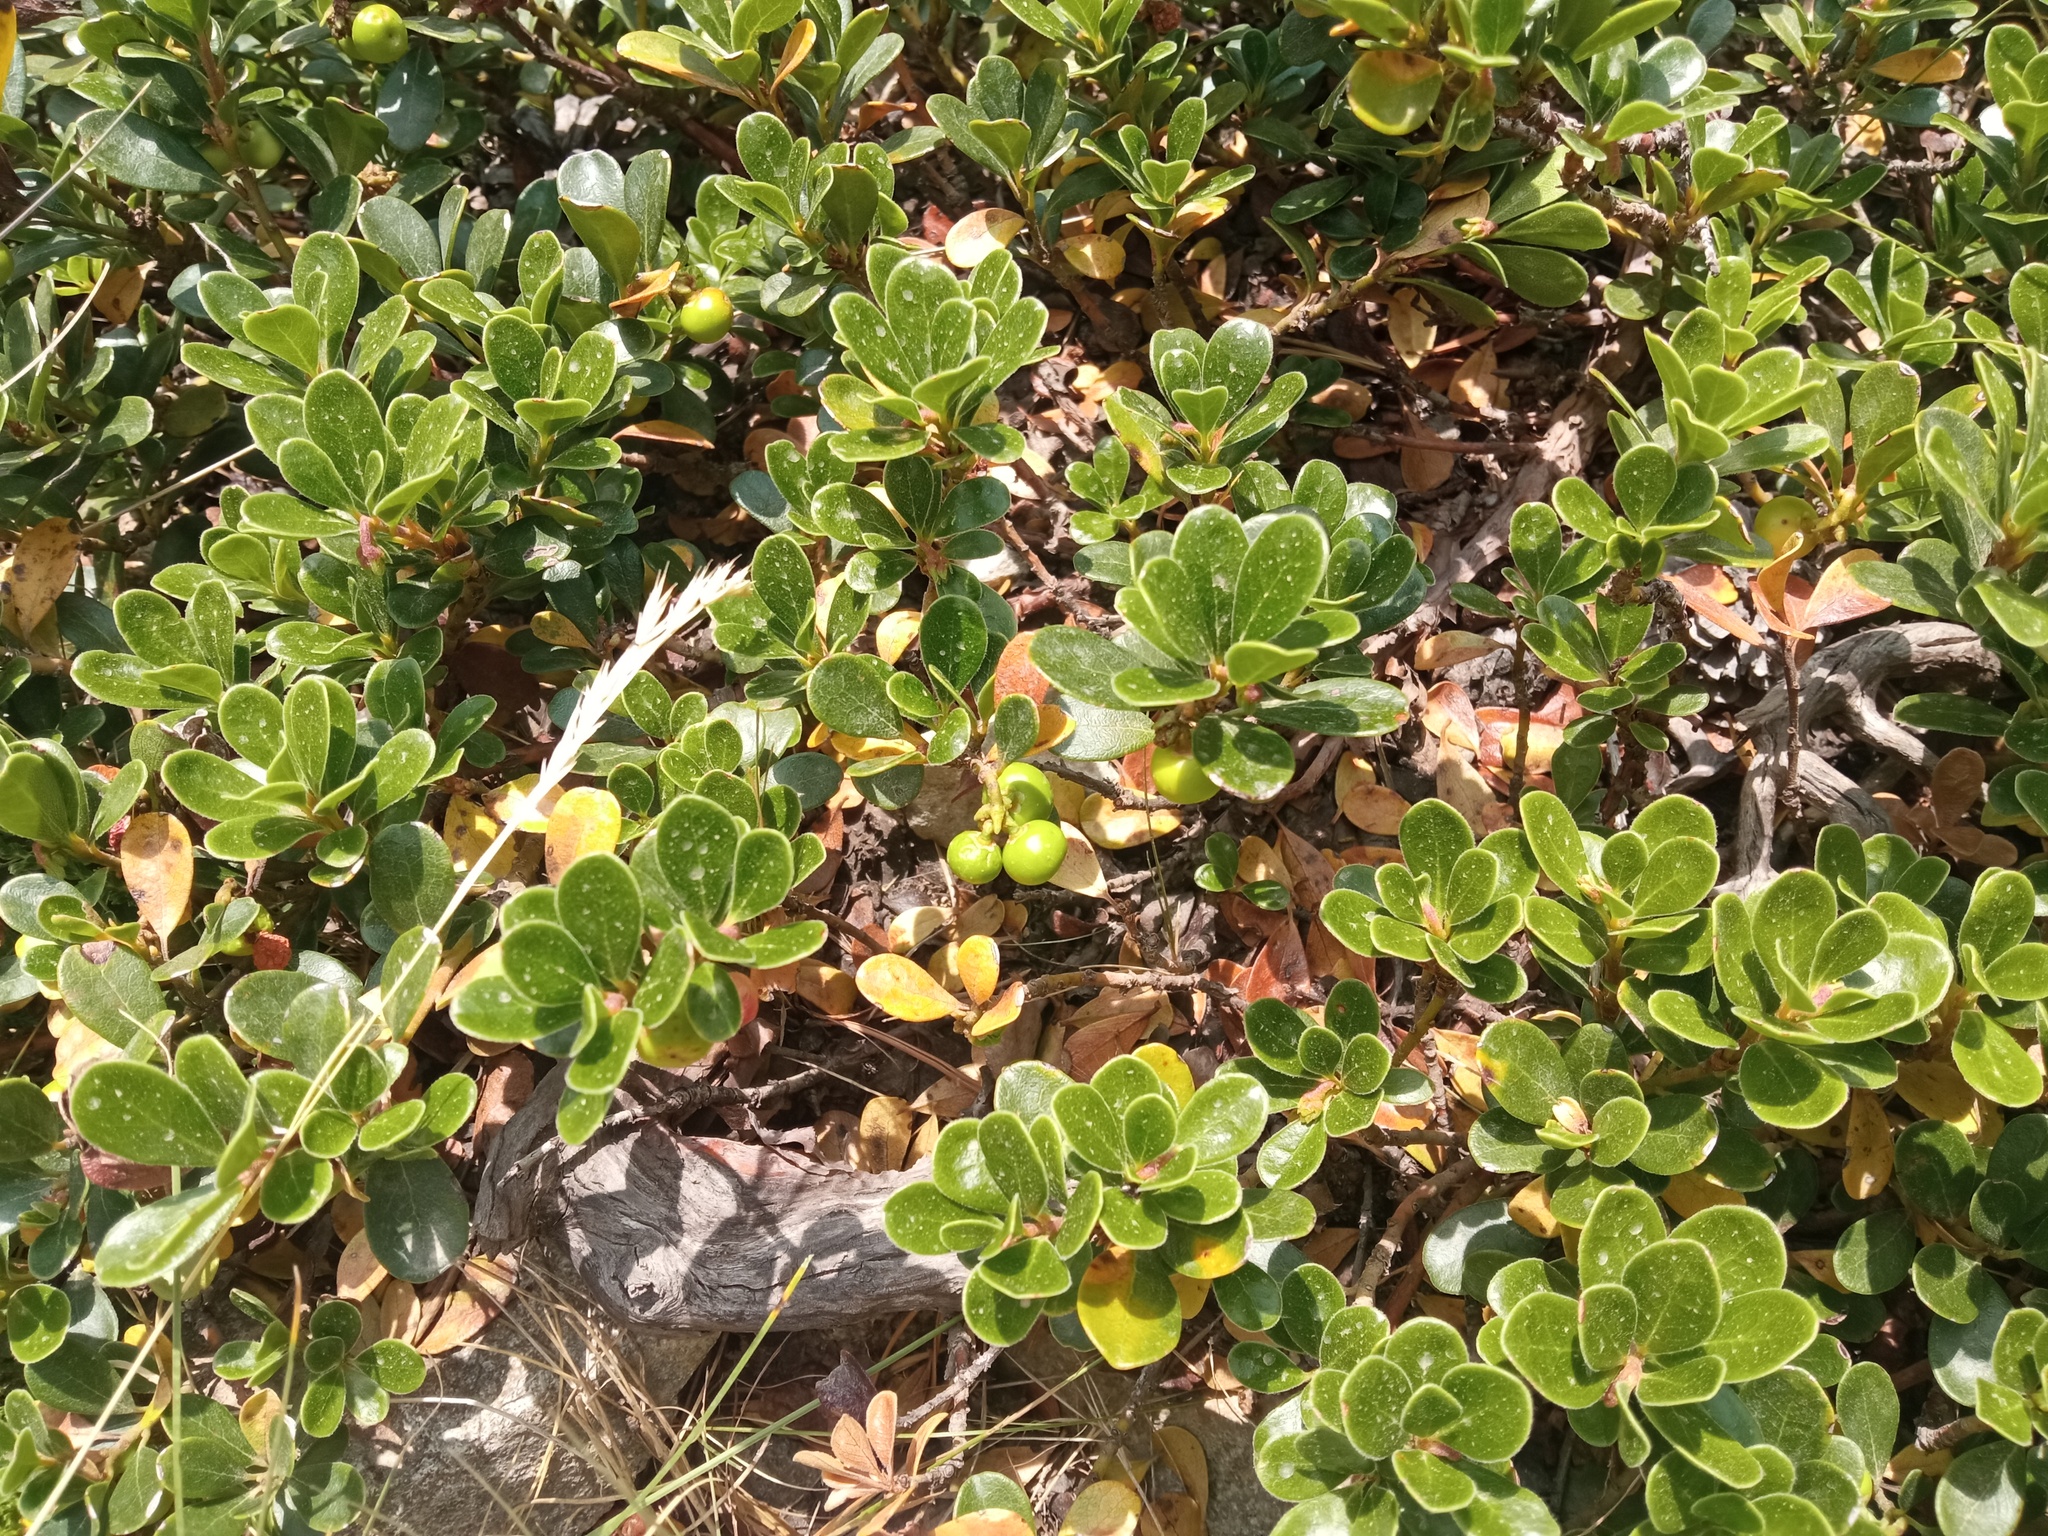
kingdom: Plantae
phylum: Tracheophyta
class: Magnoliopsida
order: Ericales
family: Ericaceae
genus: Arctostaphylos
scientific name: Arctostaphylos uva-ursi
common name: Bearberry
